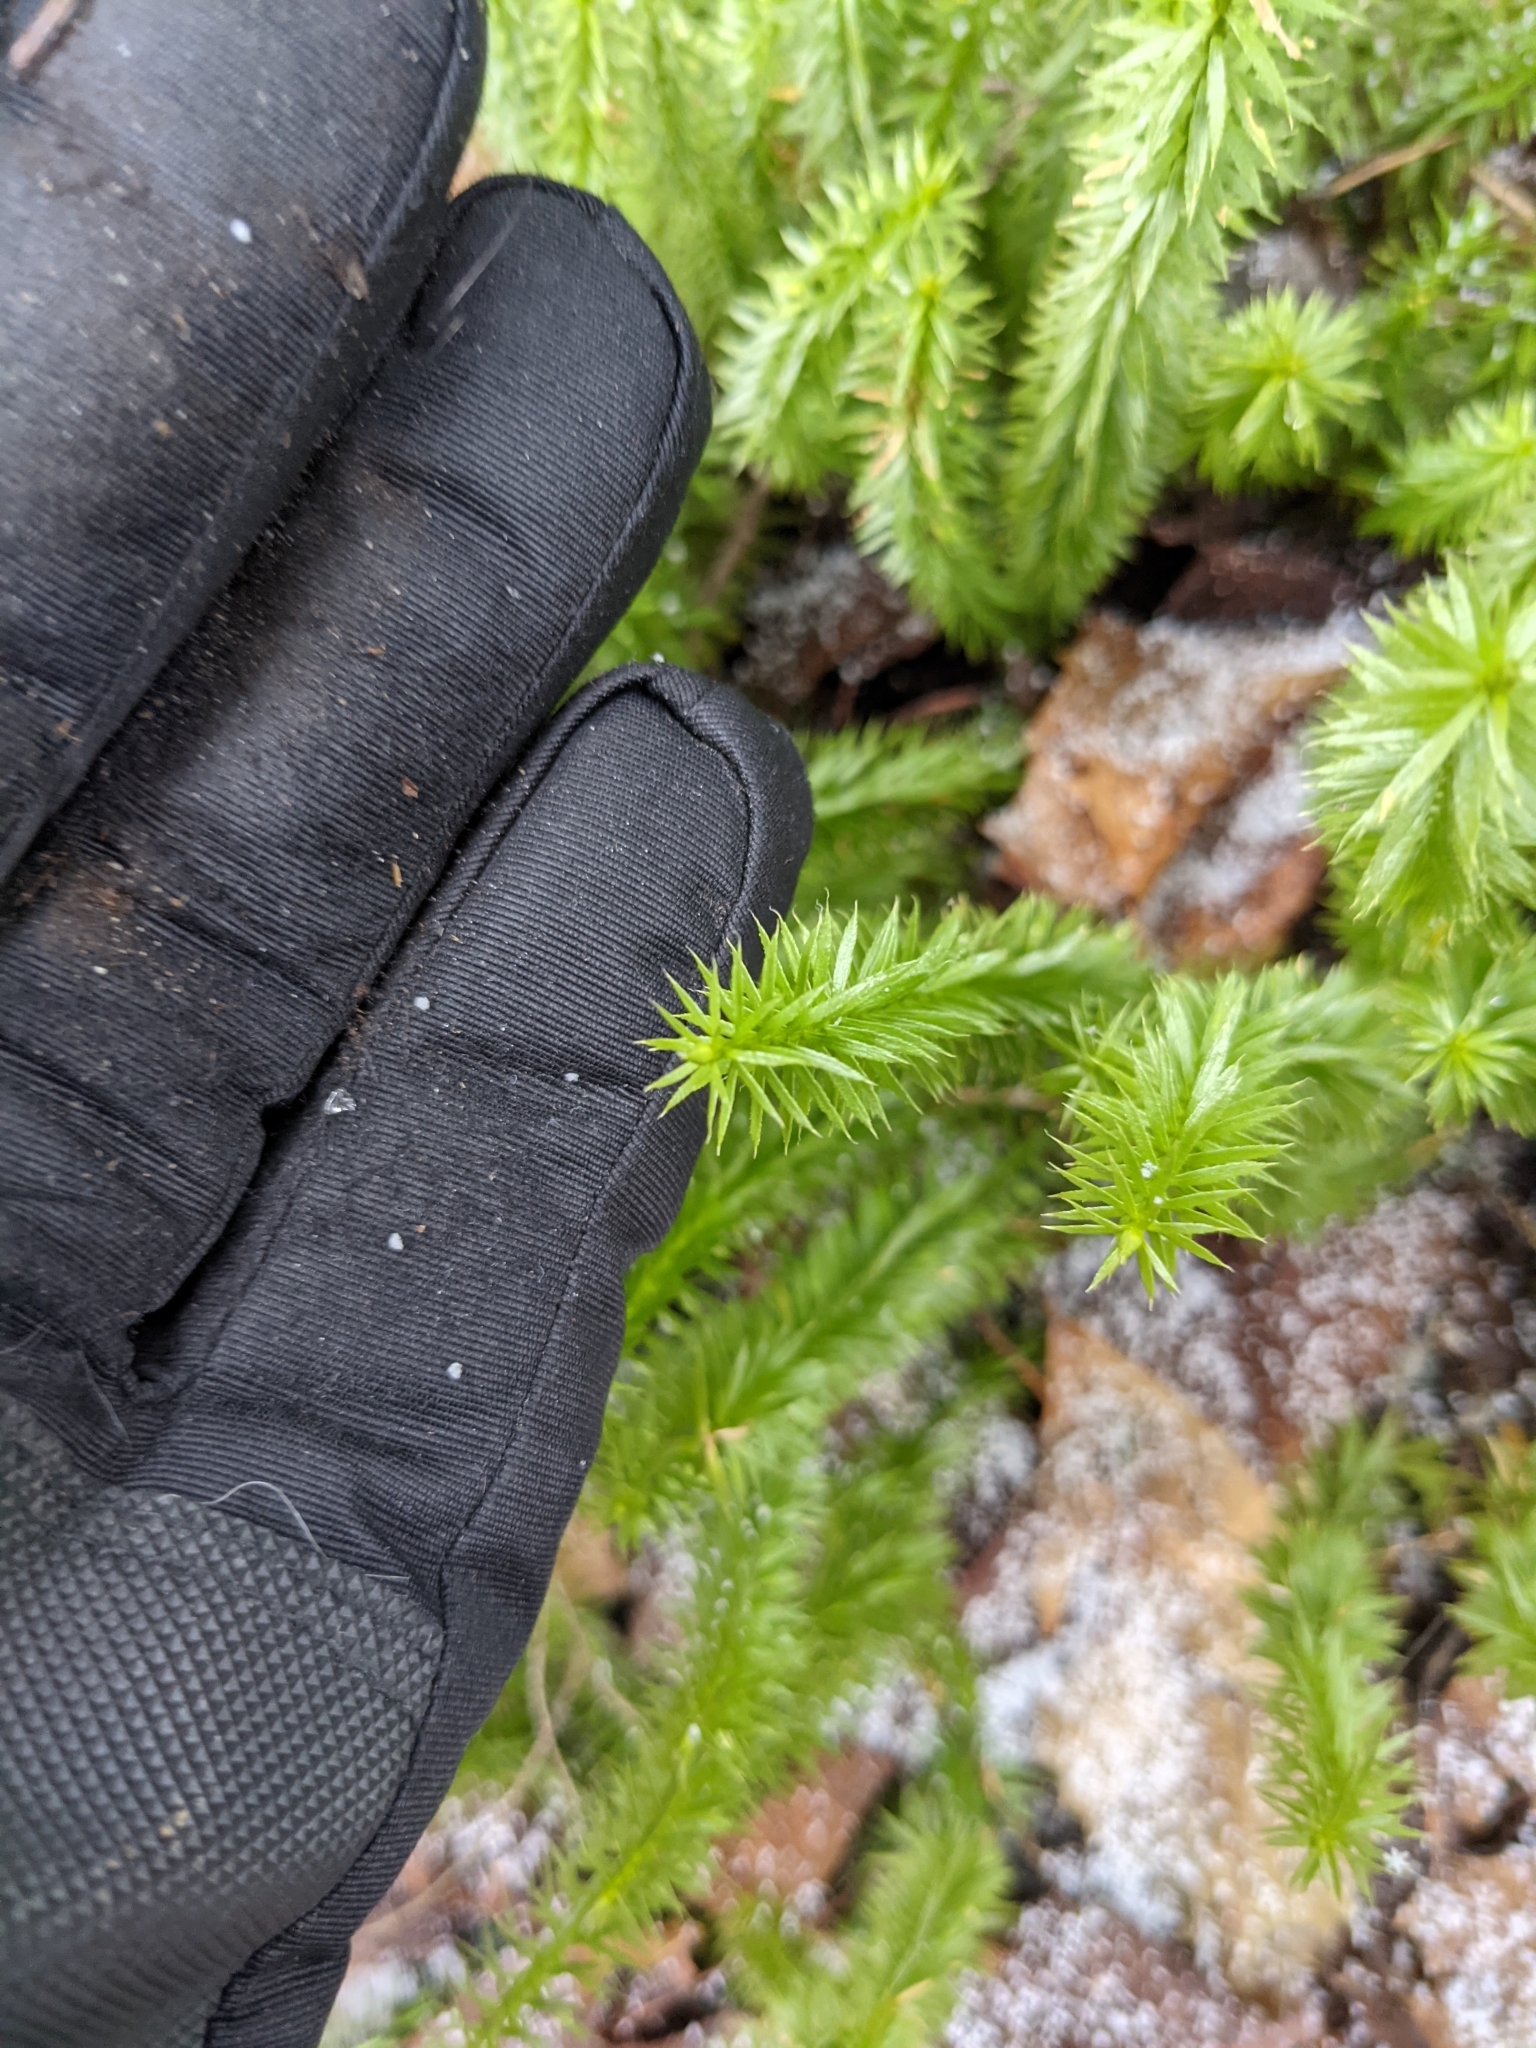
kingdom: Plantae
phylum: Tracheophyta
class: Lycopodiopsida
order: Lycopodiales
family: Lycopodiaceae
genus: Spinulum
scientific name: Spinulum annotinum
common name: Interrupted club-moss
